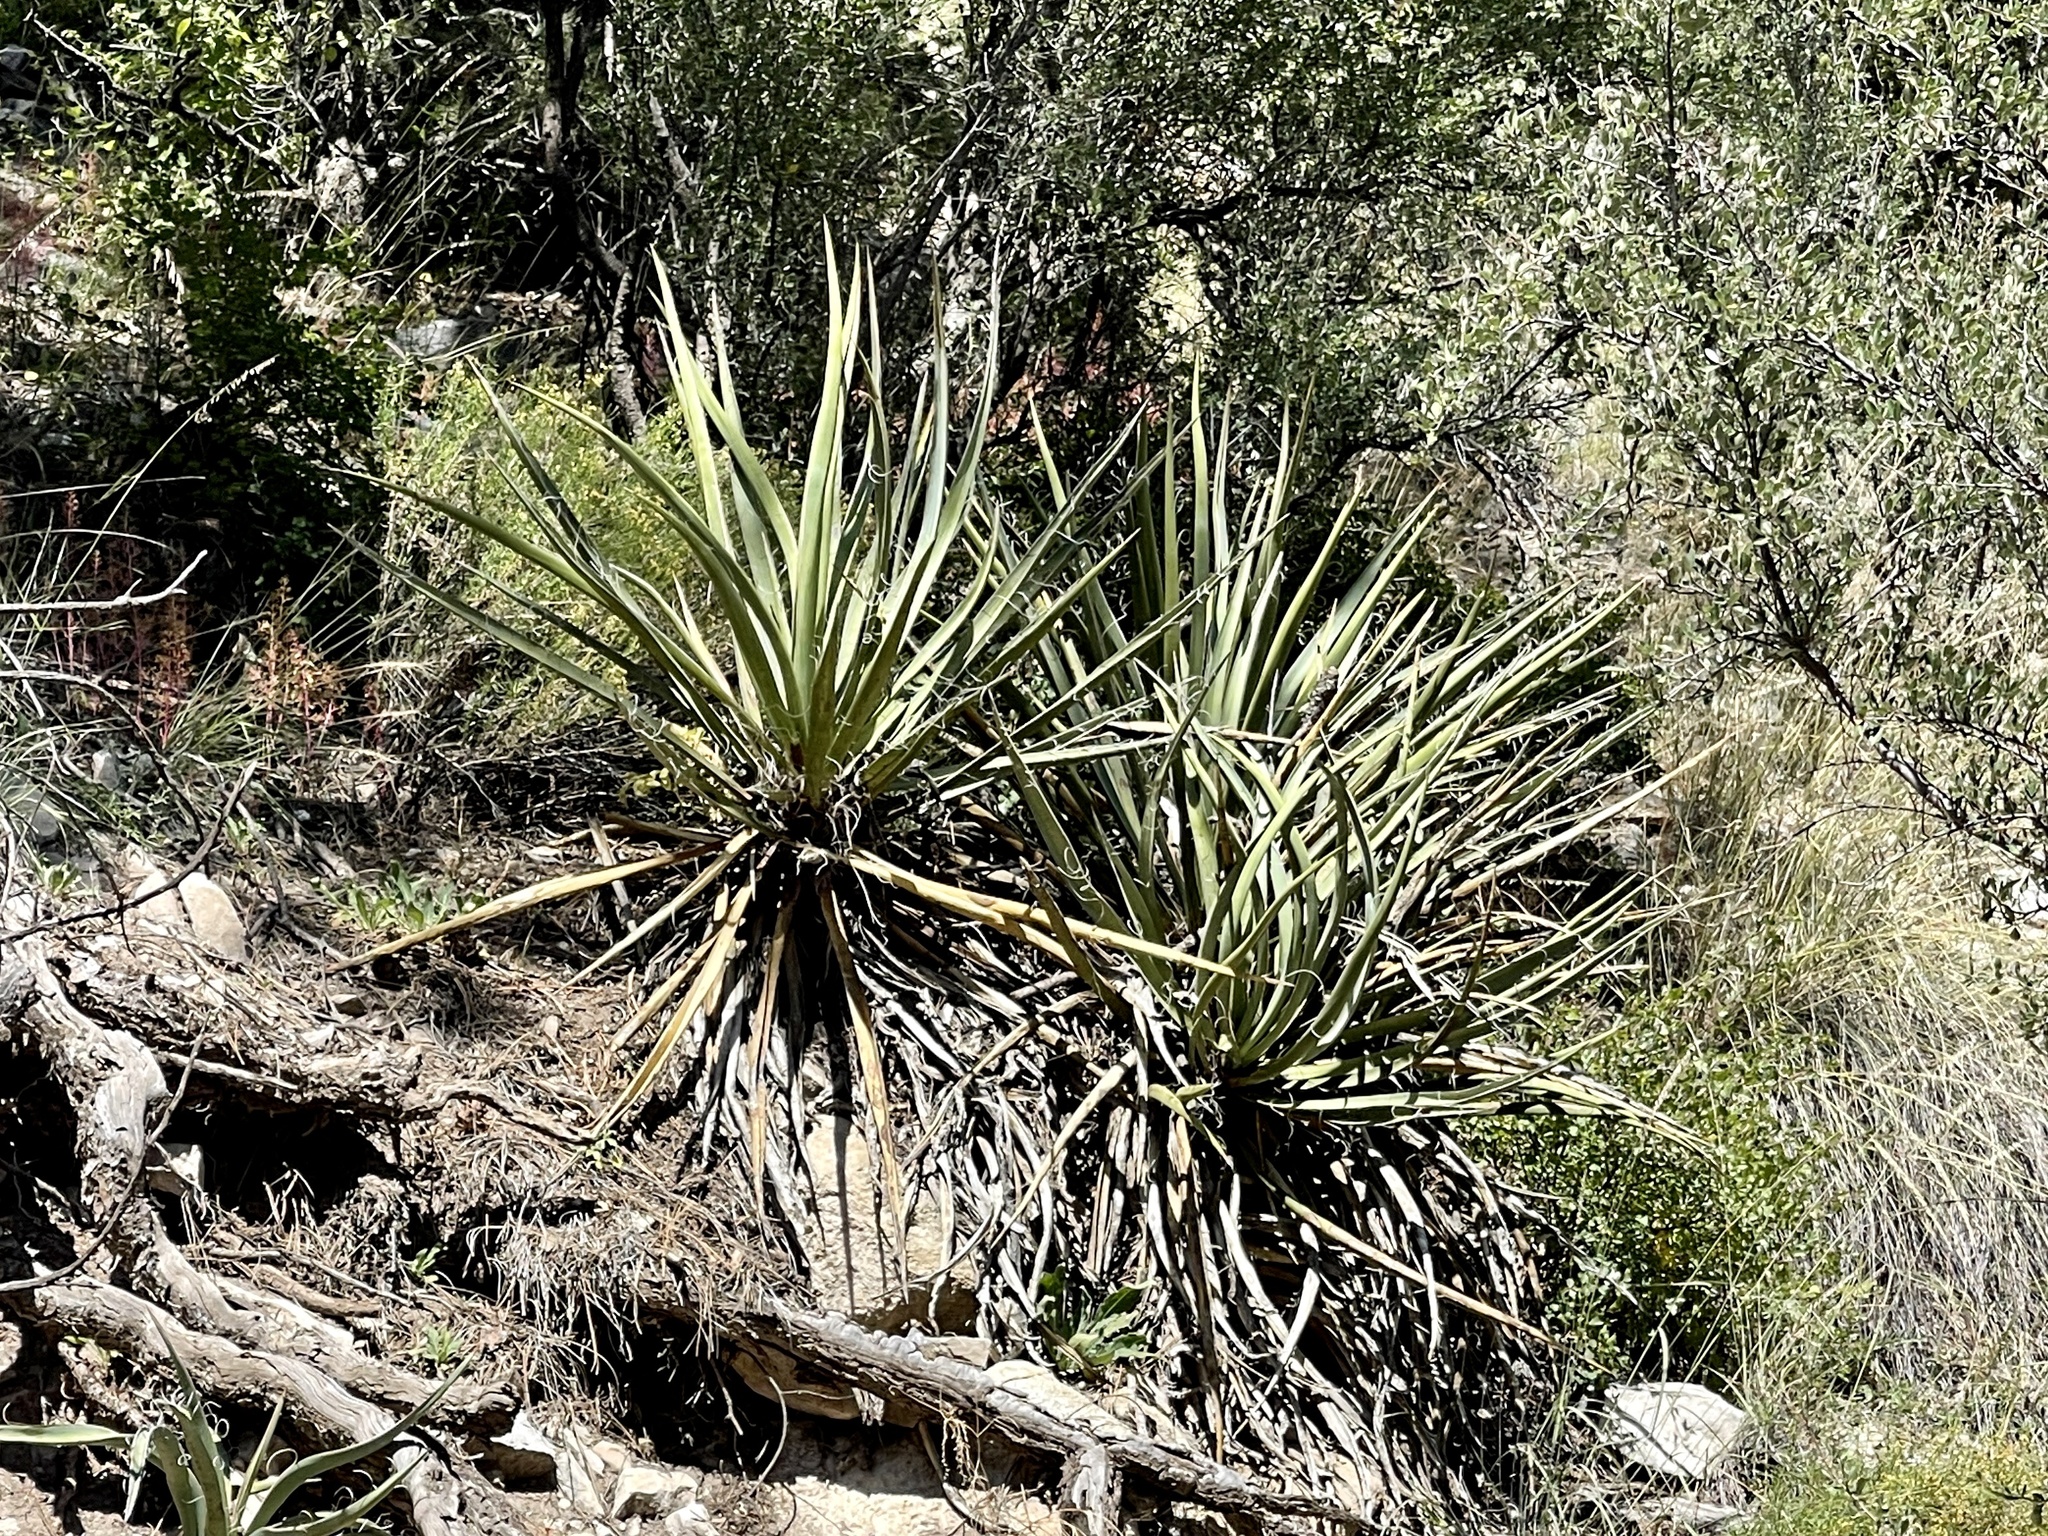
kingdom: Plantae
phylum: Tracheophyta
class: Liliopsida
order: Asparagales
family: Asparagaceae
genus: Yucca
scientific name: Yucca baccata
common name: Banana yucca
